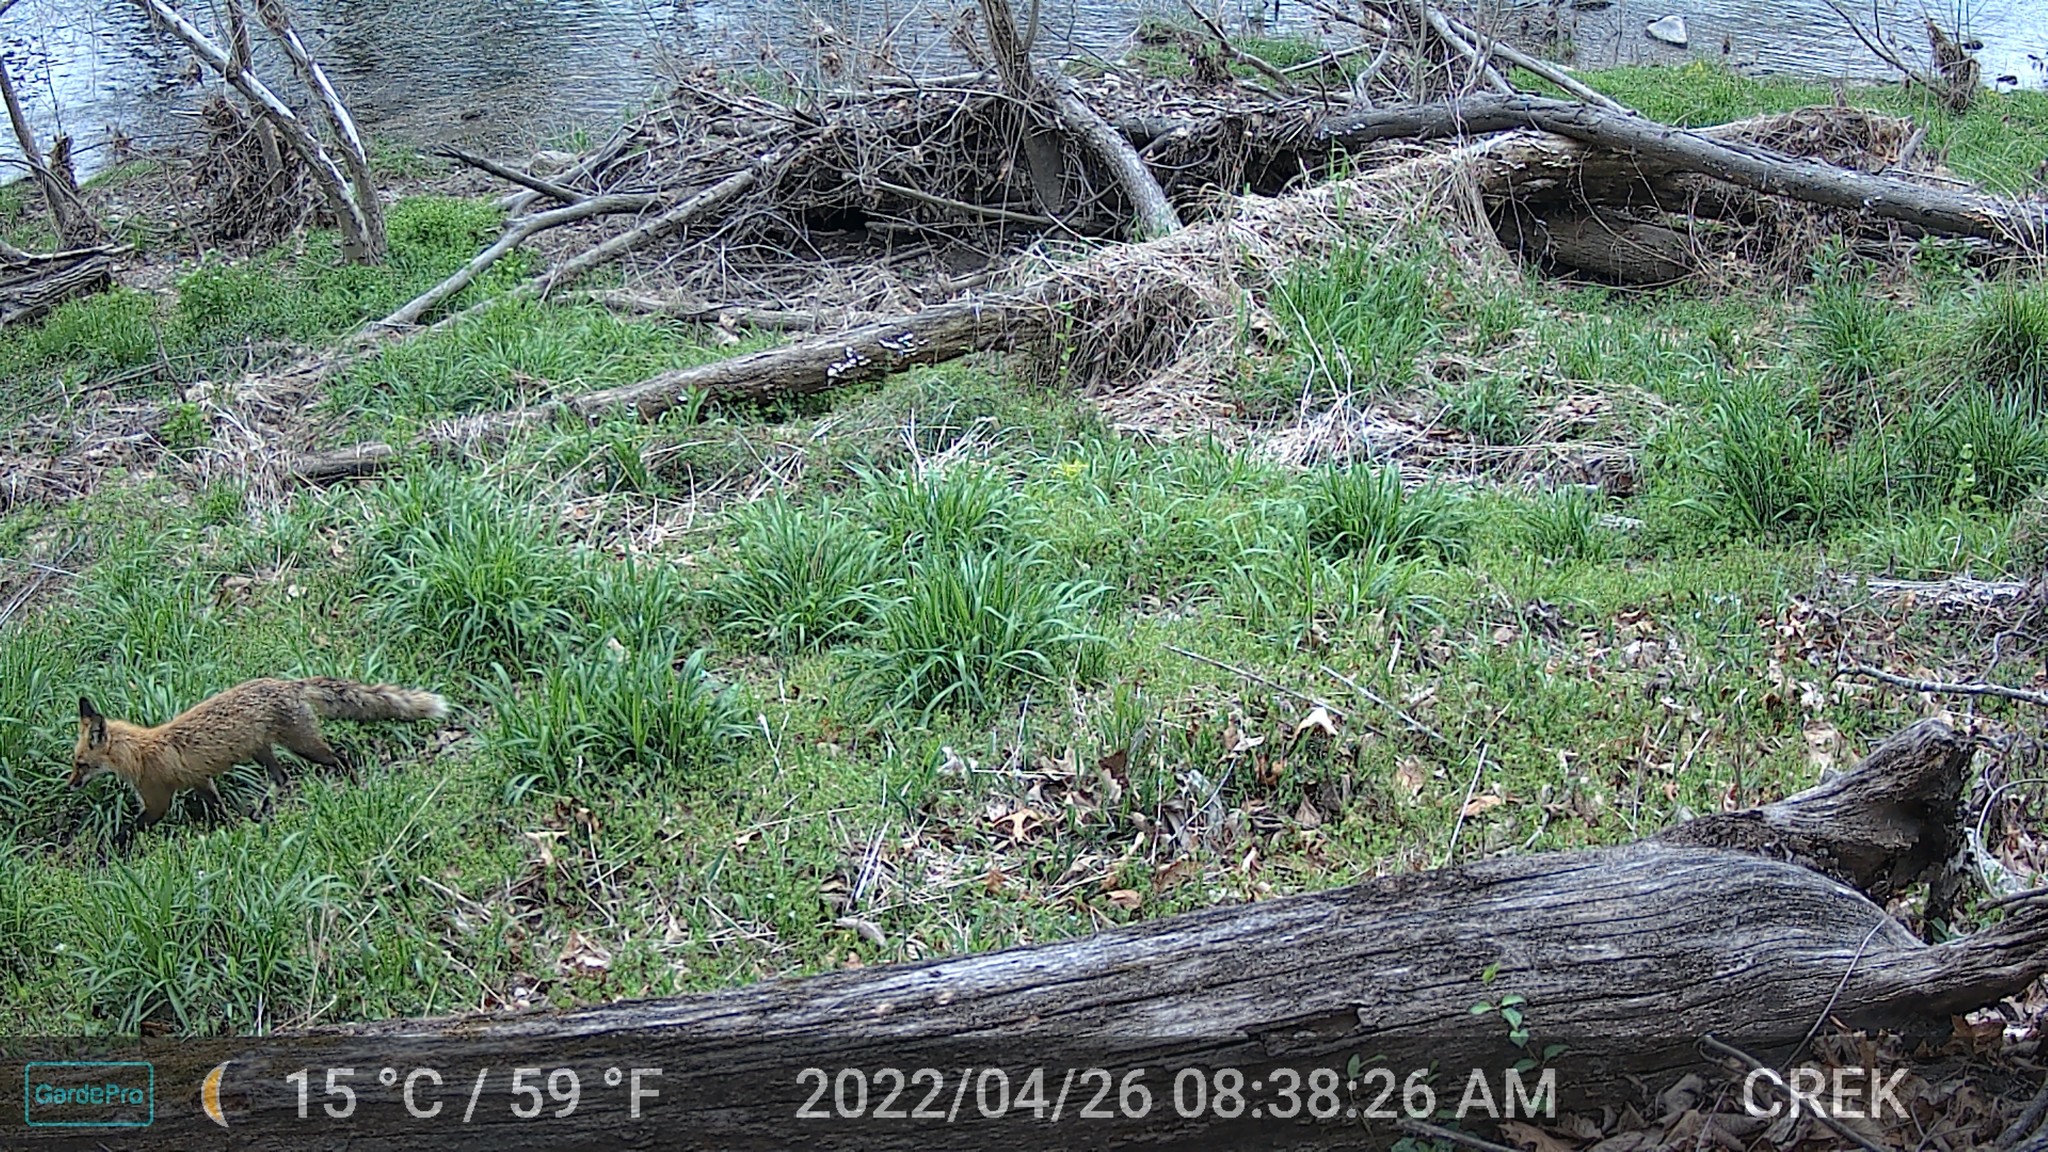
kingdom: Animalia
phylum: Chordata
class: Mammalia
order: Carnivora
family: Canidae
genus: Vulpes
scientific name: Vulpes vulpes
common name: Red fox
